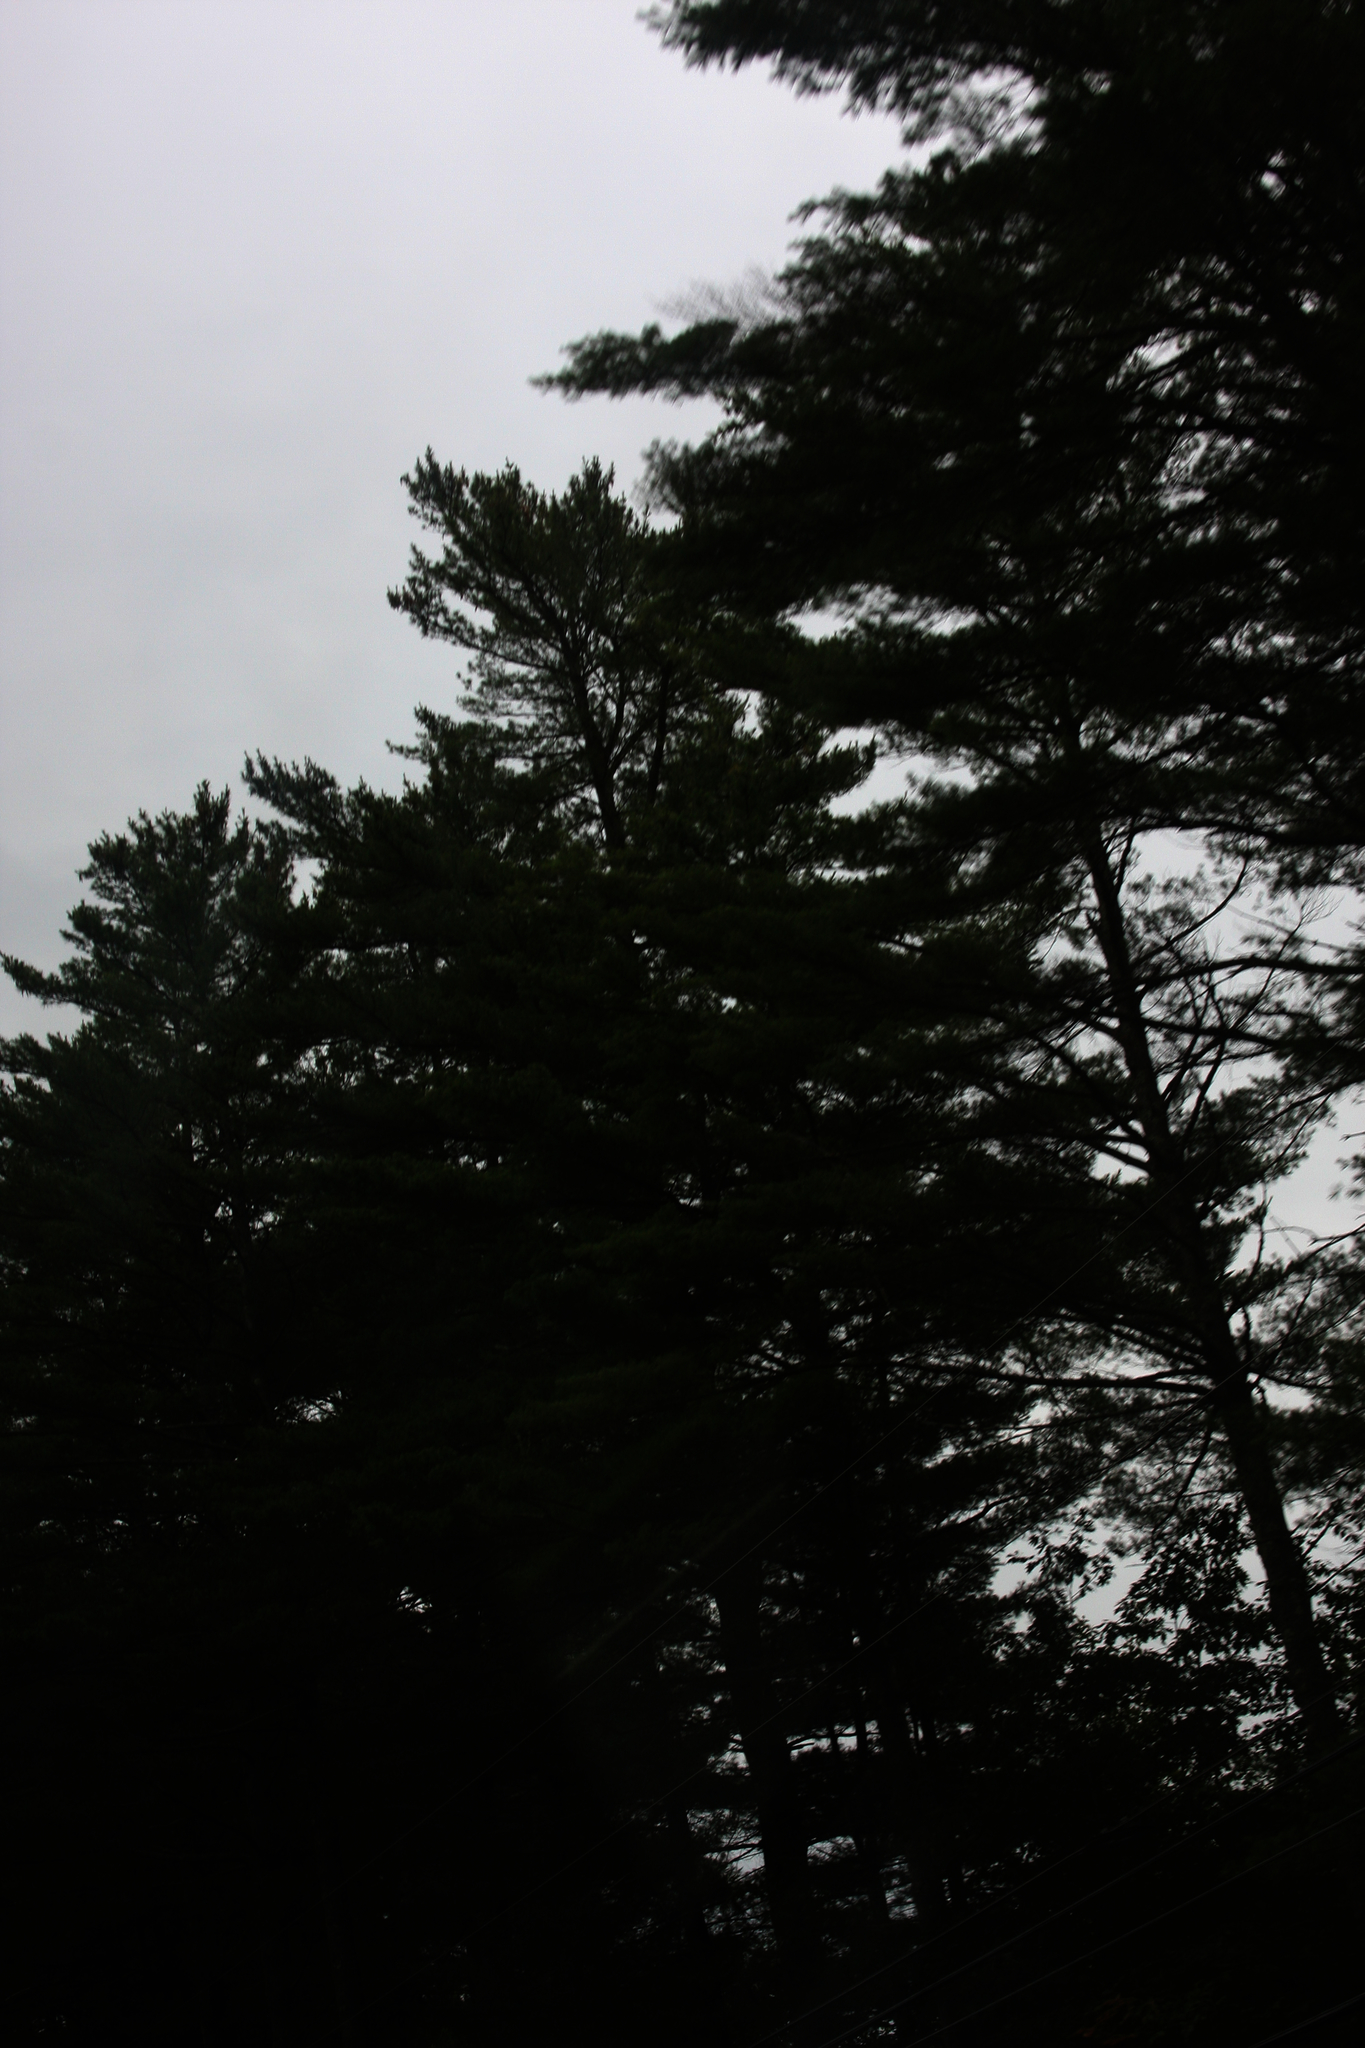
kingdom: Plantae
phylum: Tracheophyta
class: Pinopsida
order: Pinales
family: Pinaceae
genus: Pinus
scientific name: Pinus strobus
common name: Weymouth pine
